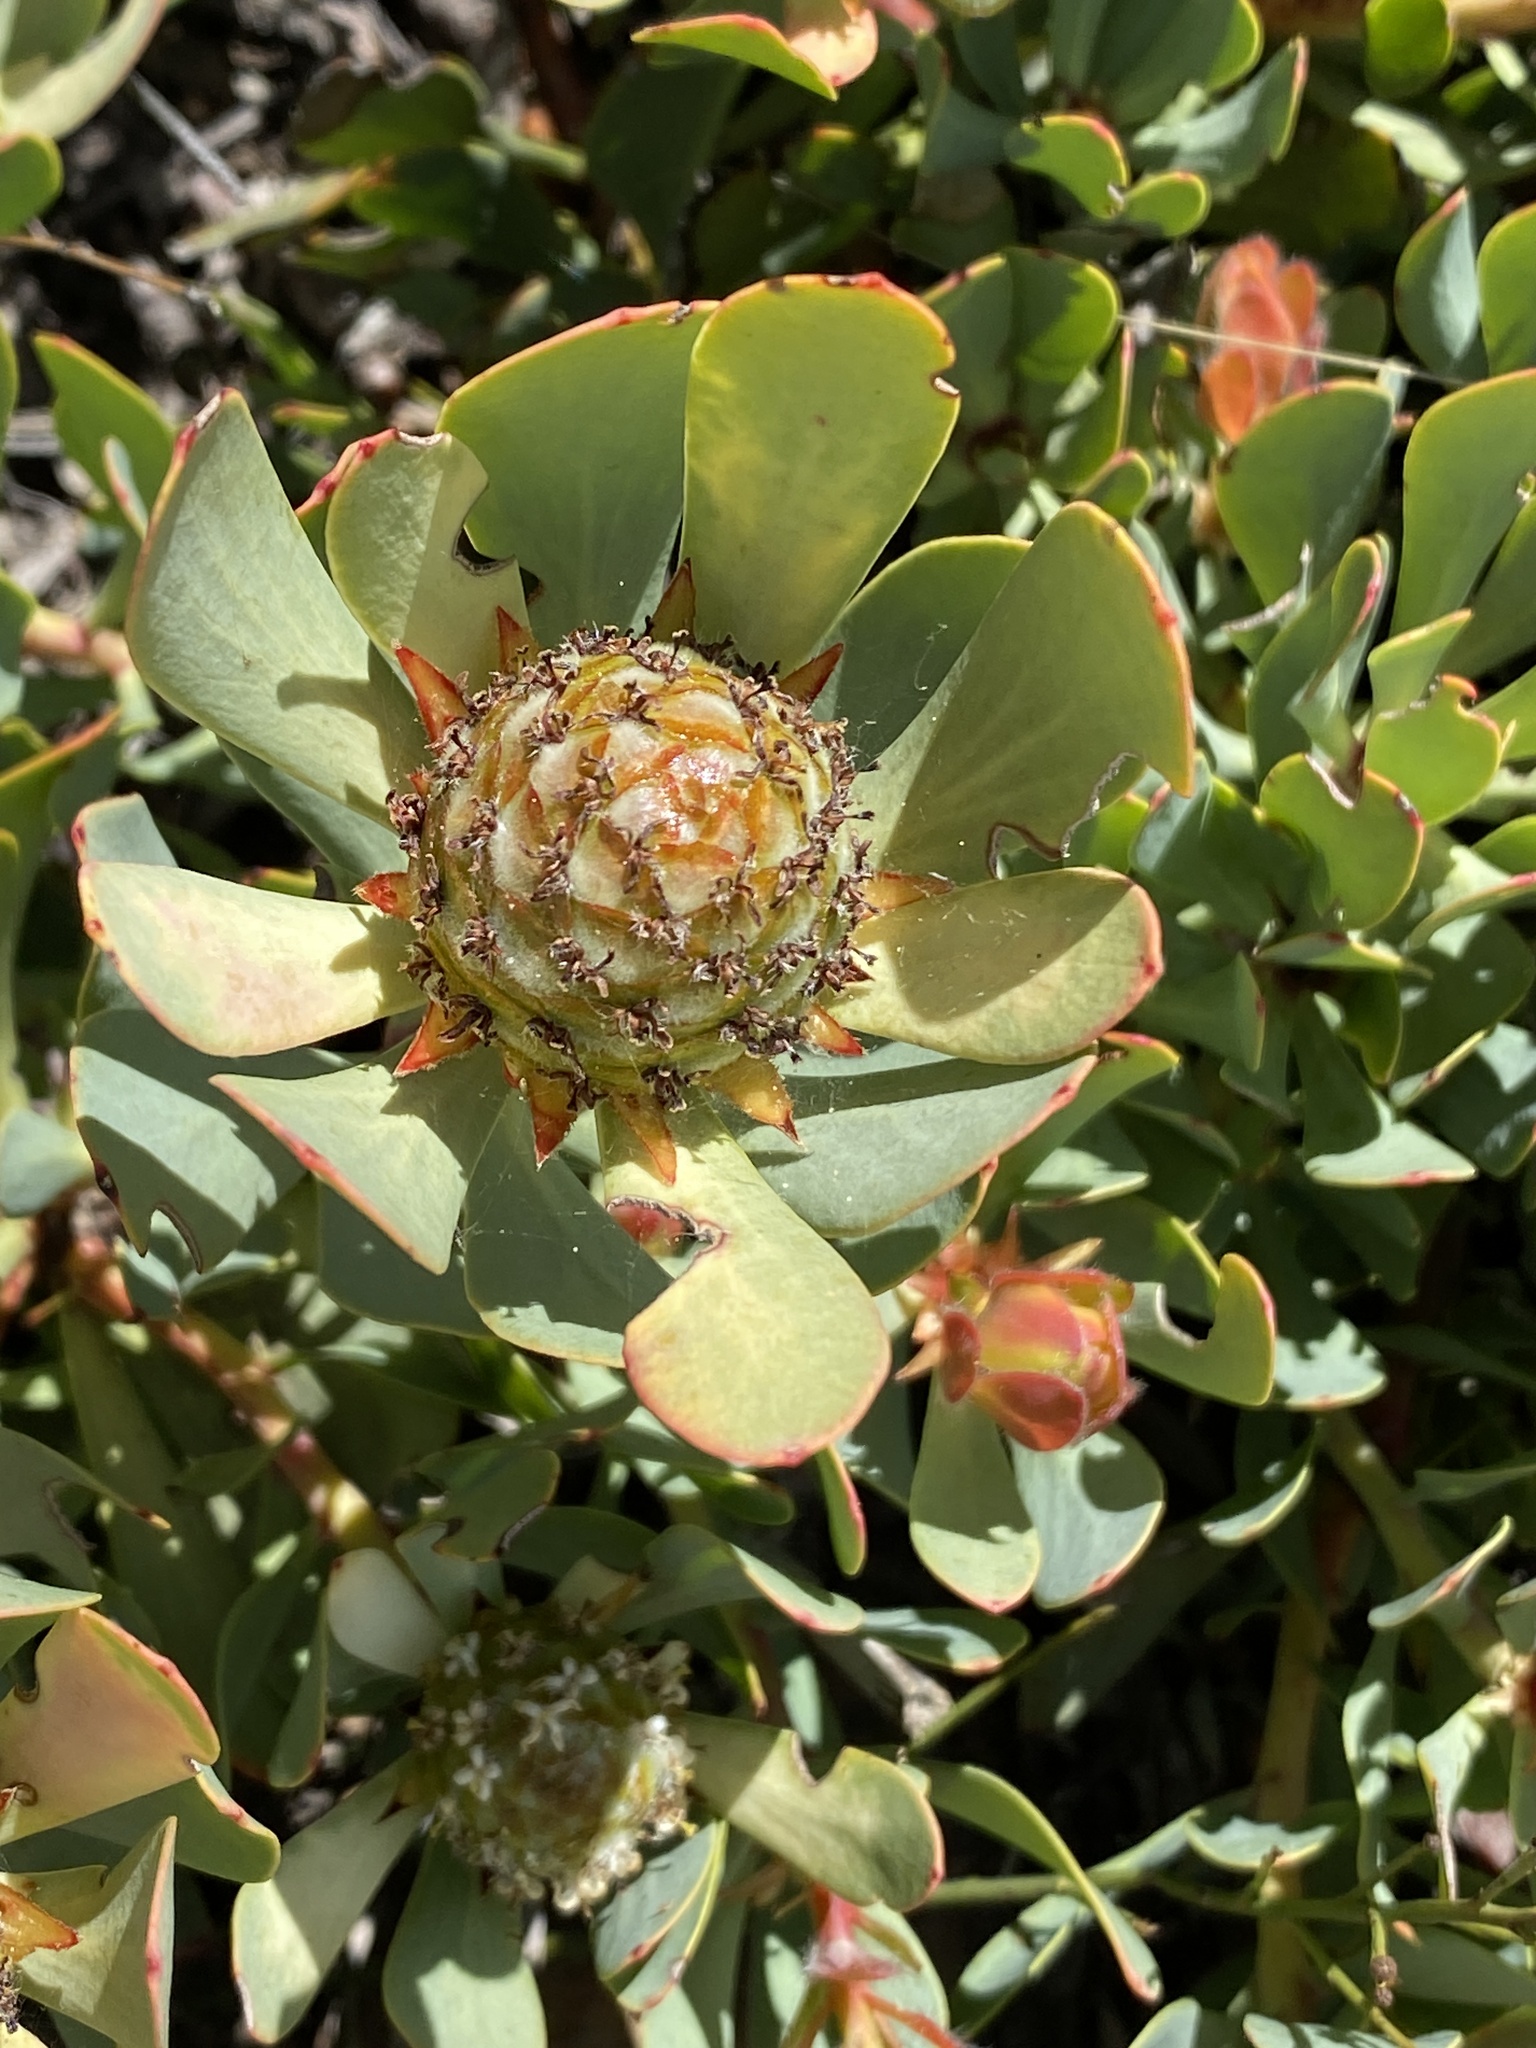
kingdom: Plantae
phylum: Tracheophyta
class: Magnoliopsida
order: Proteales
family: Proteaceae
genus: Leucadendron
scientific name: Leucadendron arcuatum
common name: Red-edge conebush
